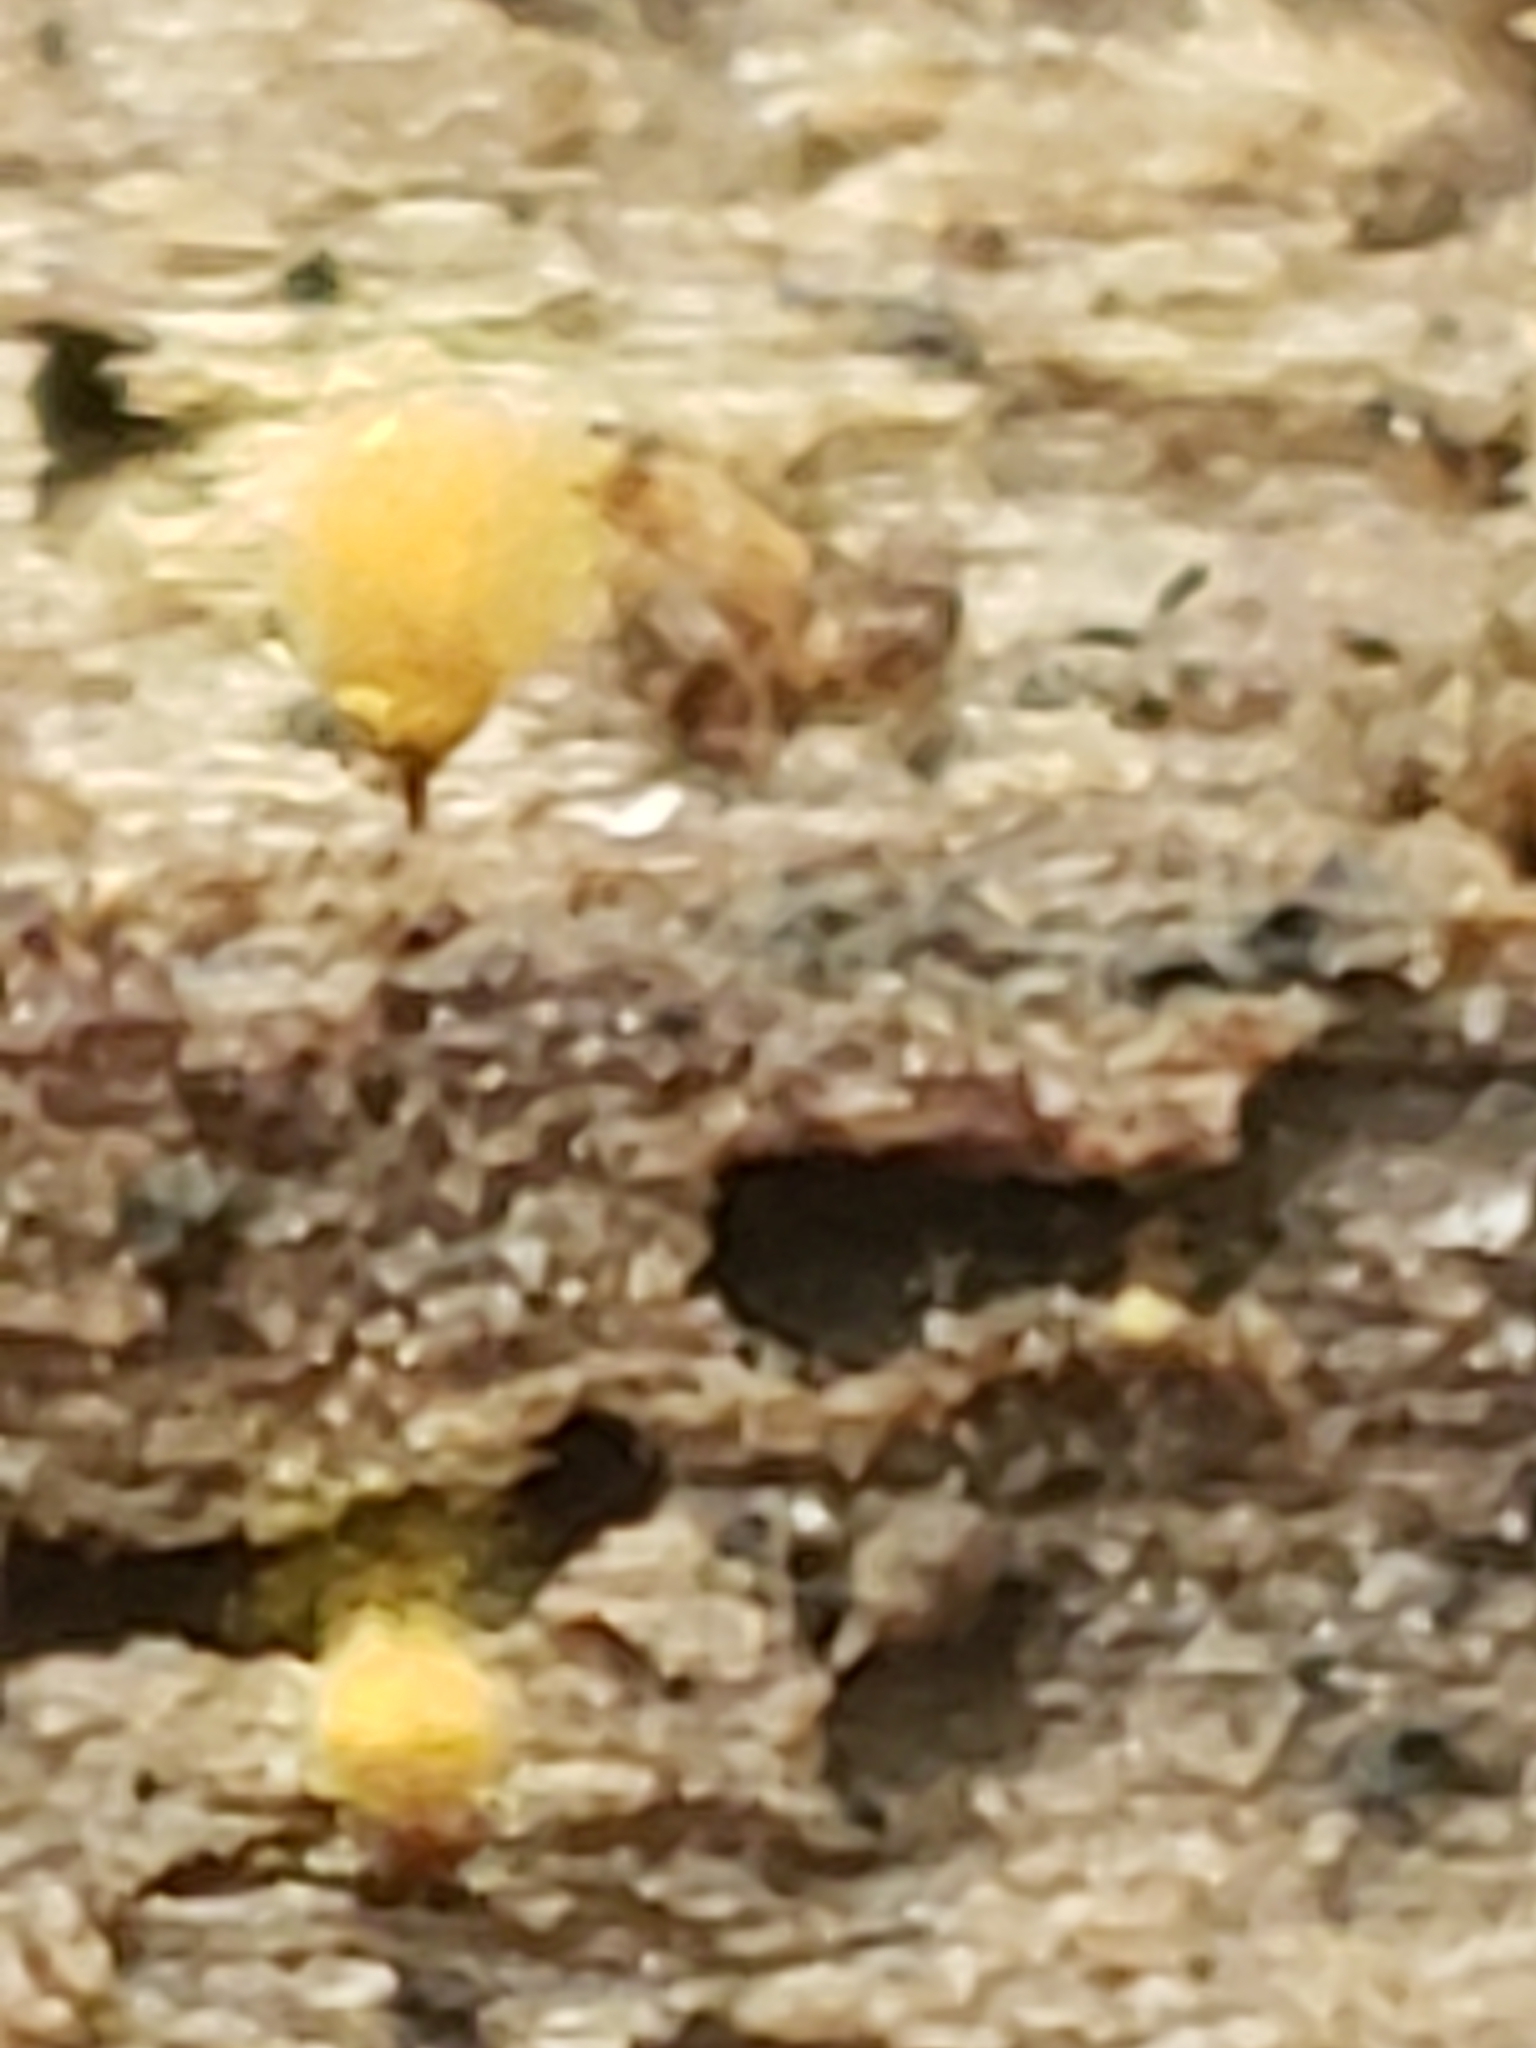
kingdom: Protozoa
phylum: Mycetozoa
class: Myxomycetes
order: Trichiales
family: Arcyriaceae
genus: Hemitrichia
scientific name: Hemitrichia calyculata
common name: Push pin slime mold
